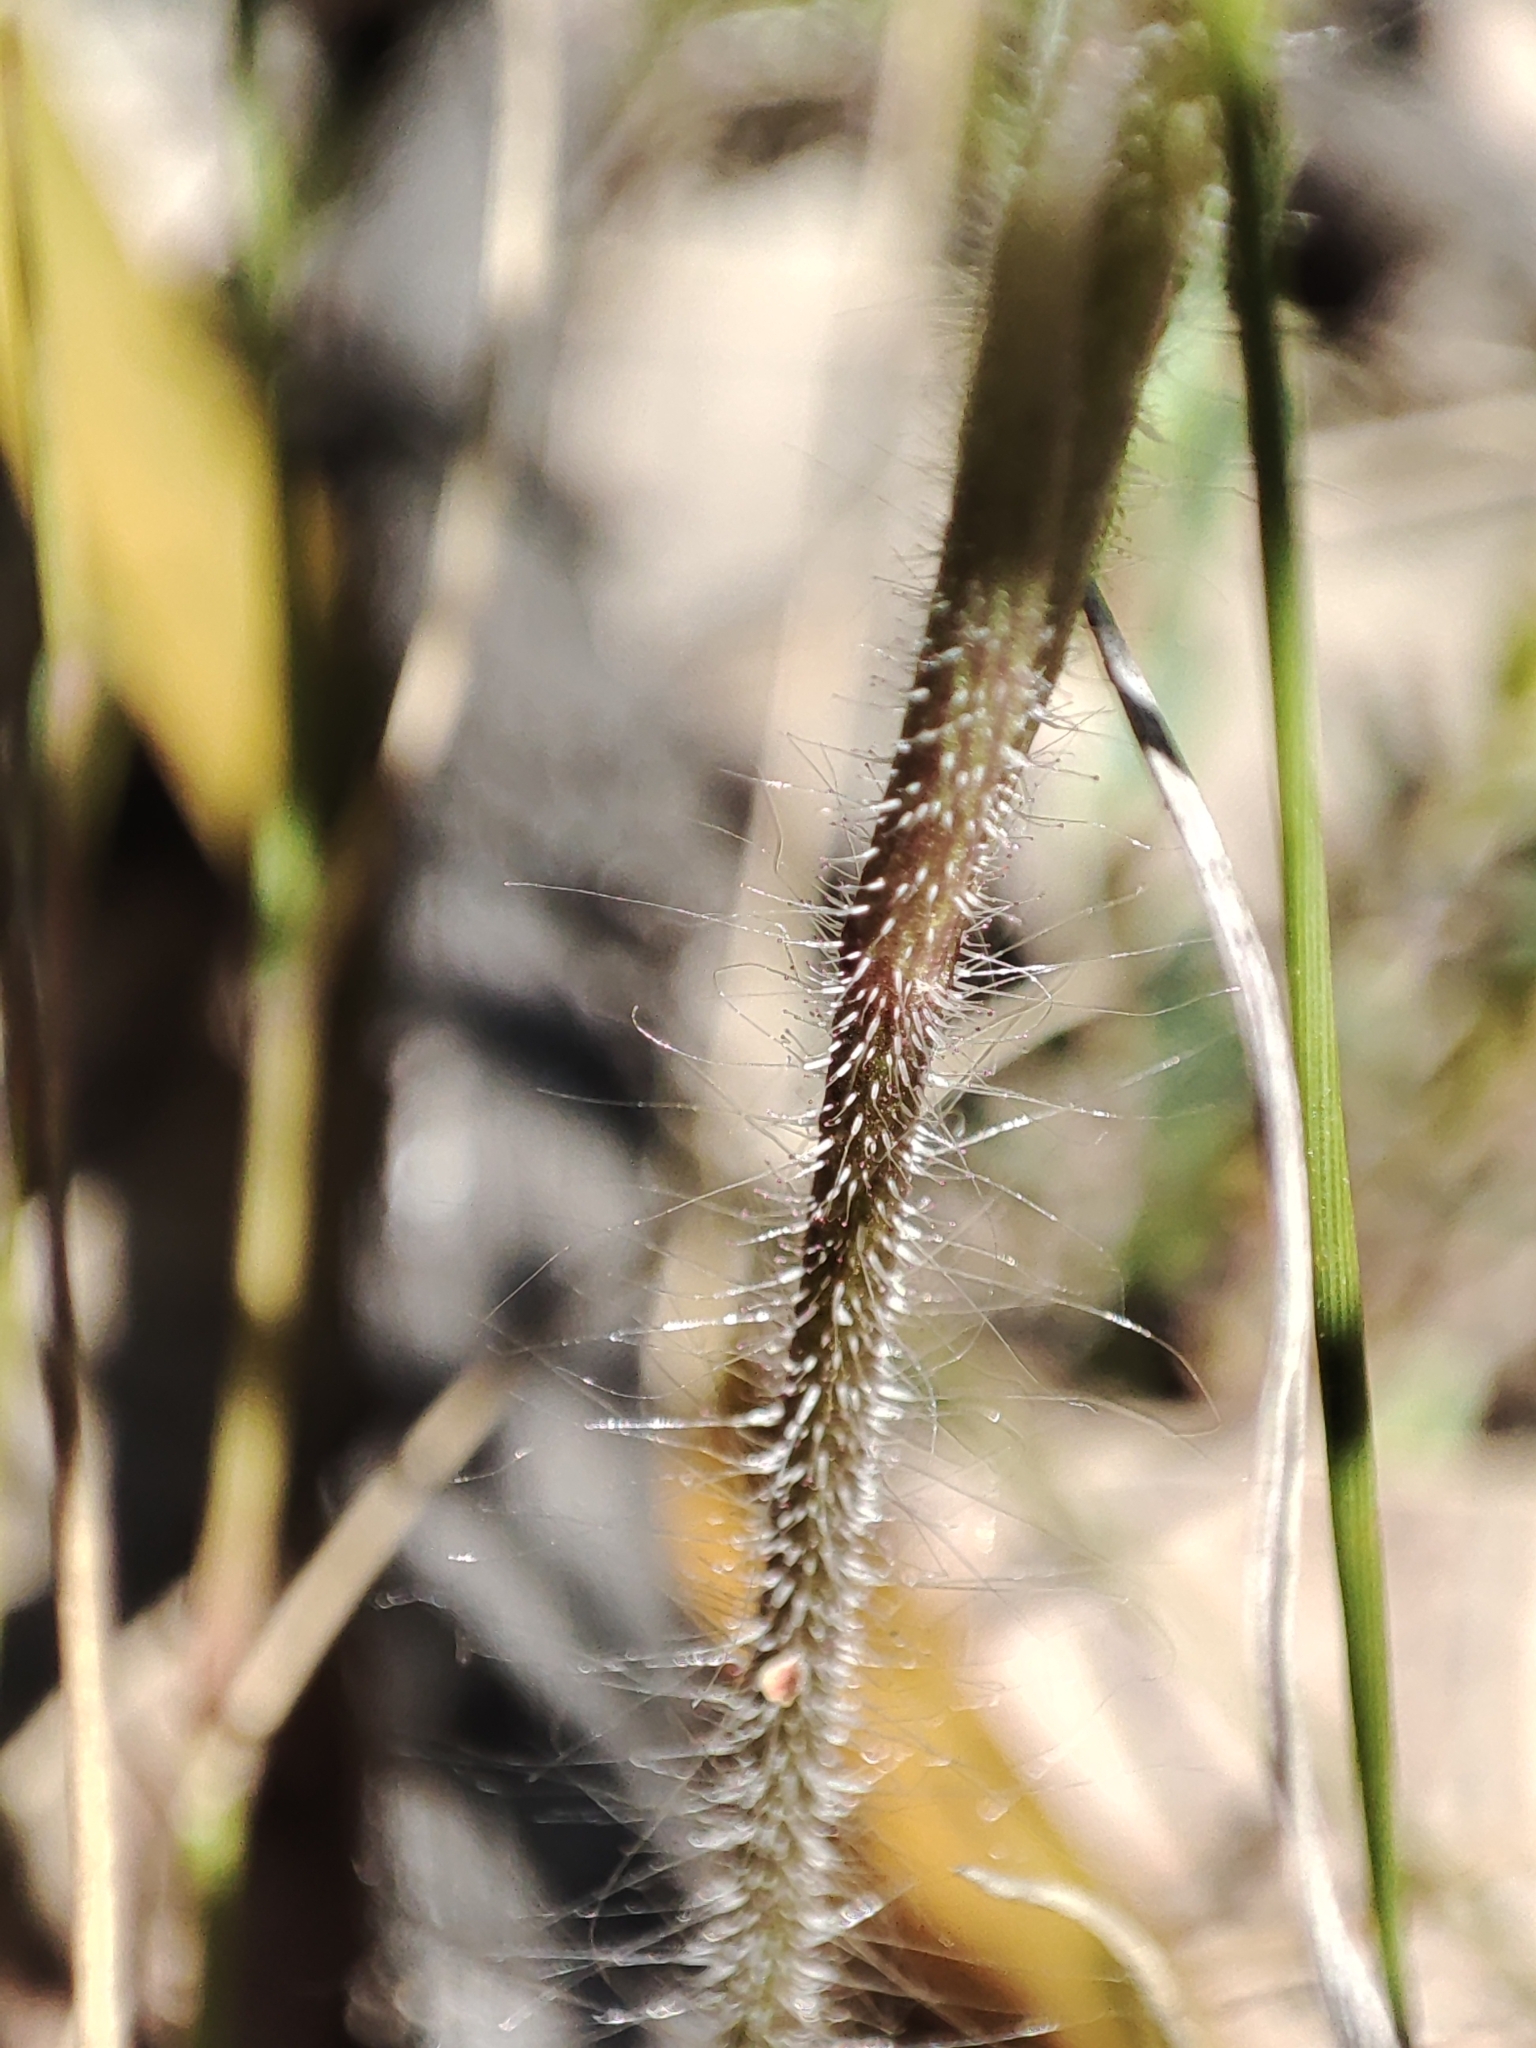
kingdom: Plantae
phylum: Tracheophyta
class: Liliopsida
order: Asparagales
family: Orchidaceae
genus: Caladenia
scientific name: Caladenia parva
